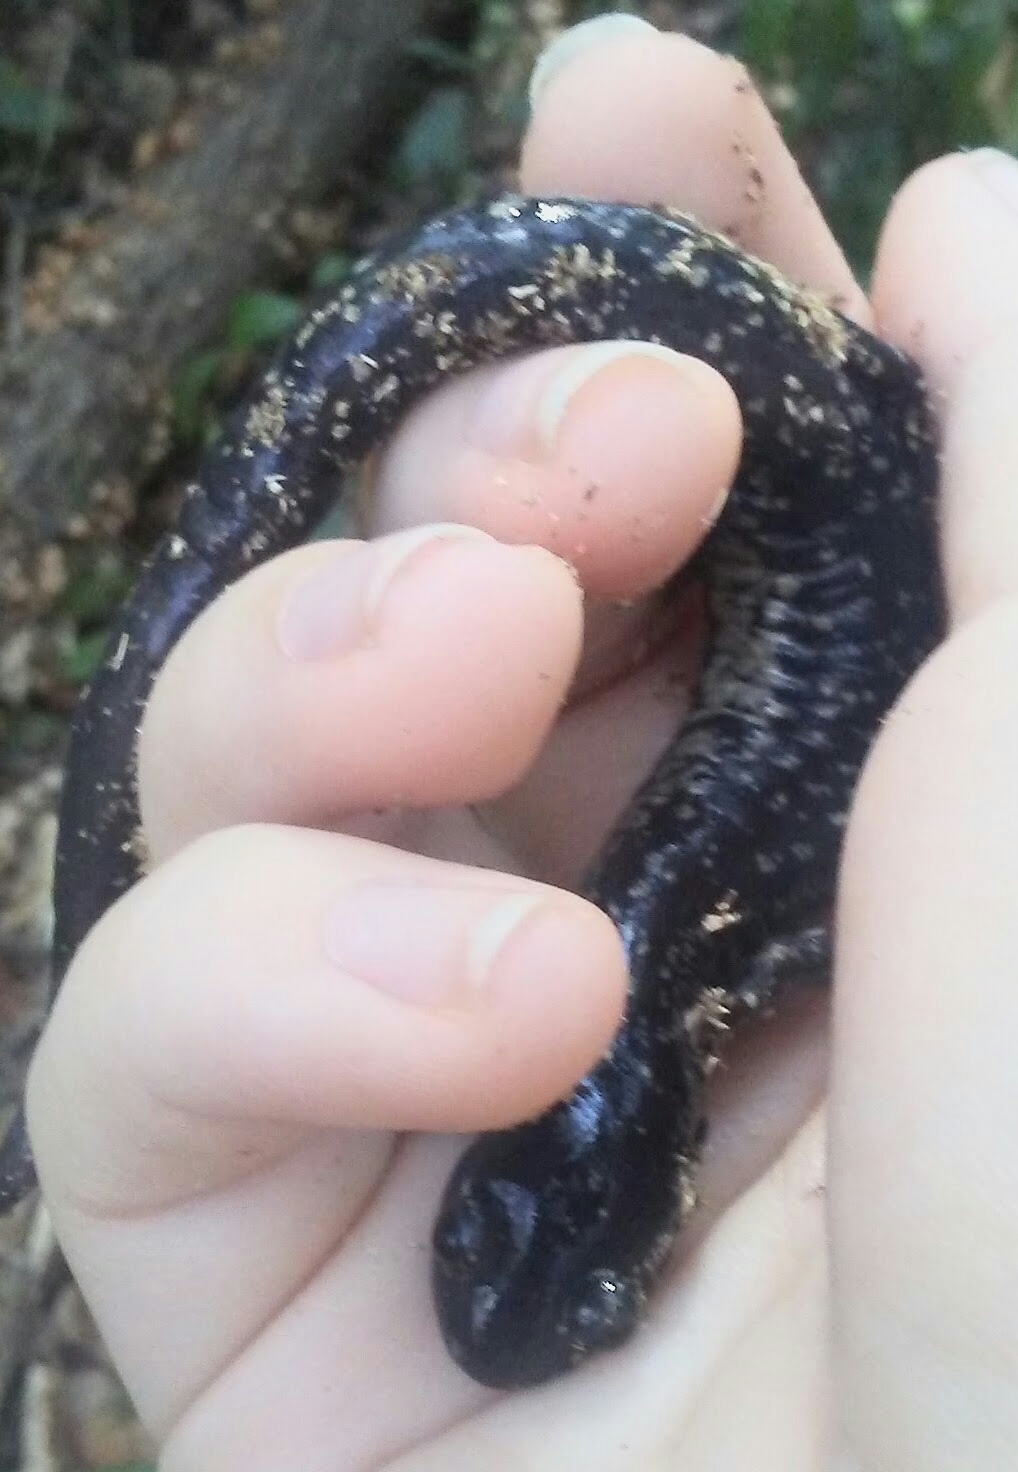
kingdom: Animalia
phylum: Chordata
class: Amphibia
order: Caudata
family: Plethodontidae
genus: Plethodon
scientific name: Plethodon grobmani
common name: Southeastern slimy salamander
